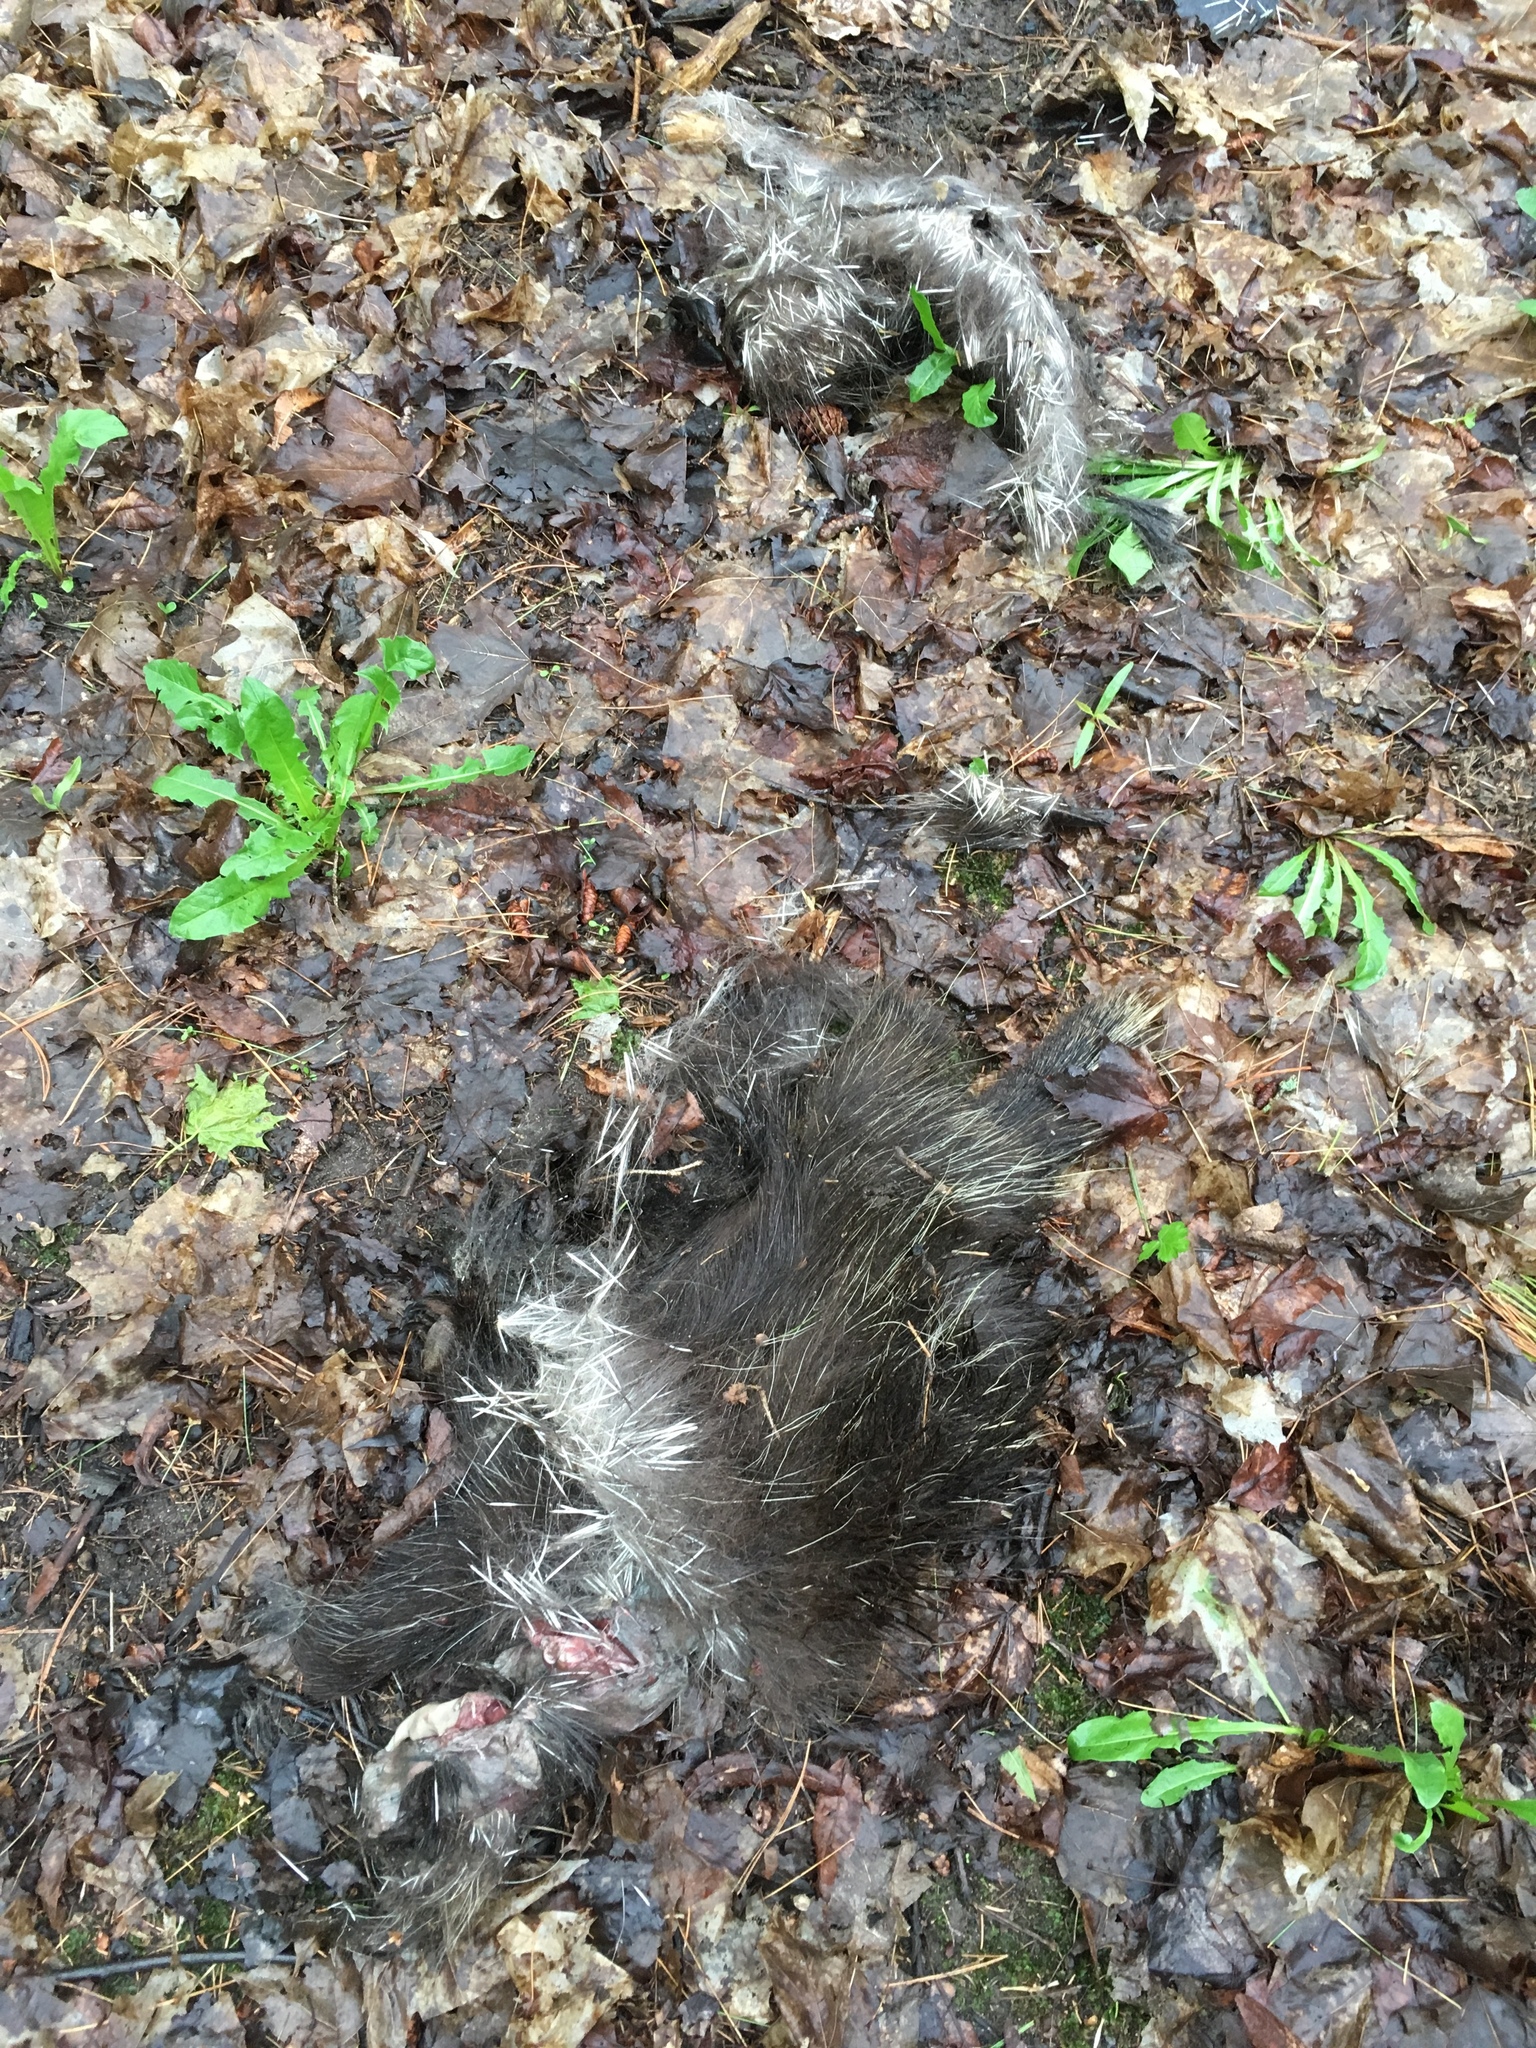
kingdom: Animalia
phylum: Chordata
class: Mammalia
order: Rodentia
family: Erethizontidae
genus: Erethizon
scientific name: Erethizon dorsatus
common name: North american porcupine
